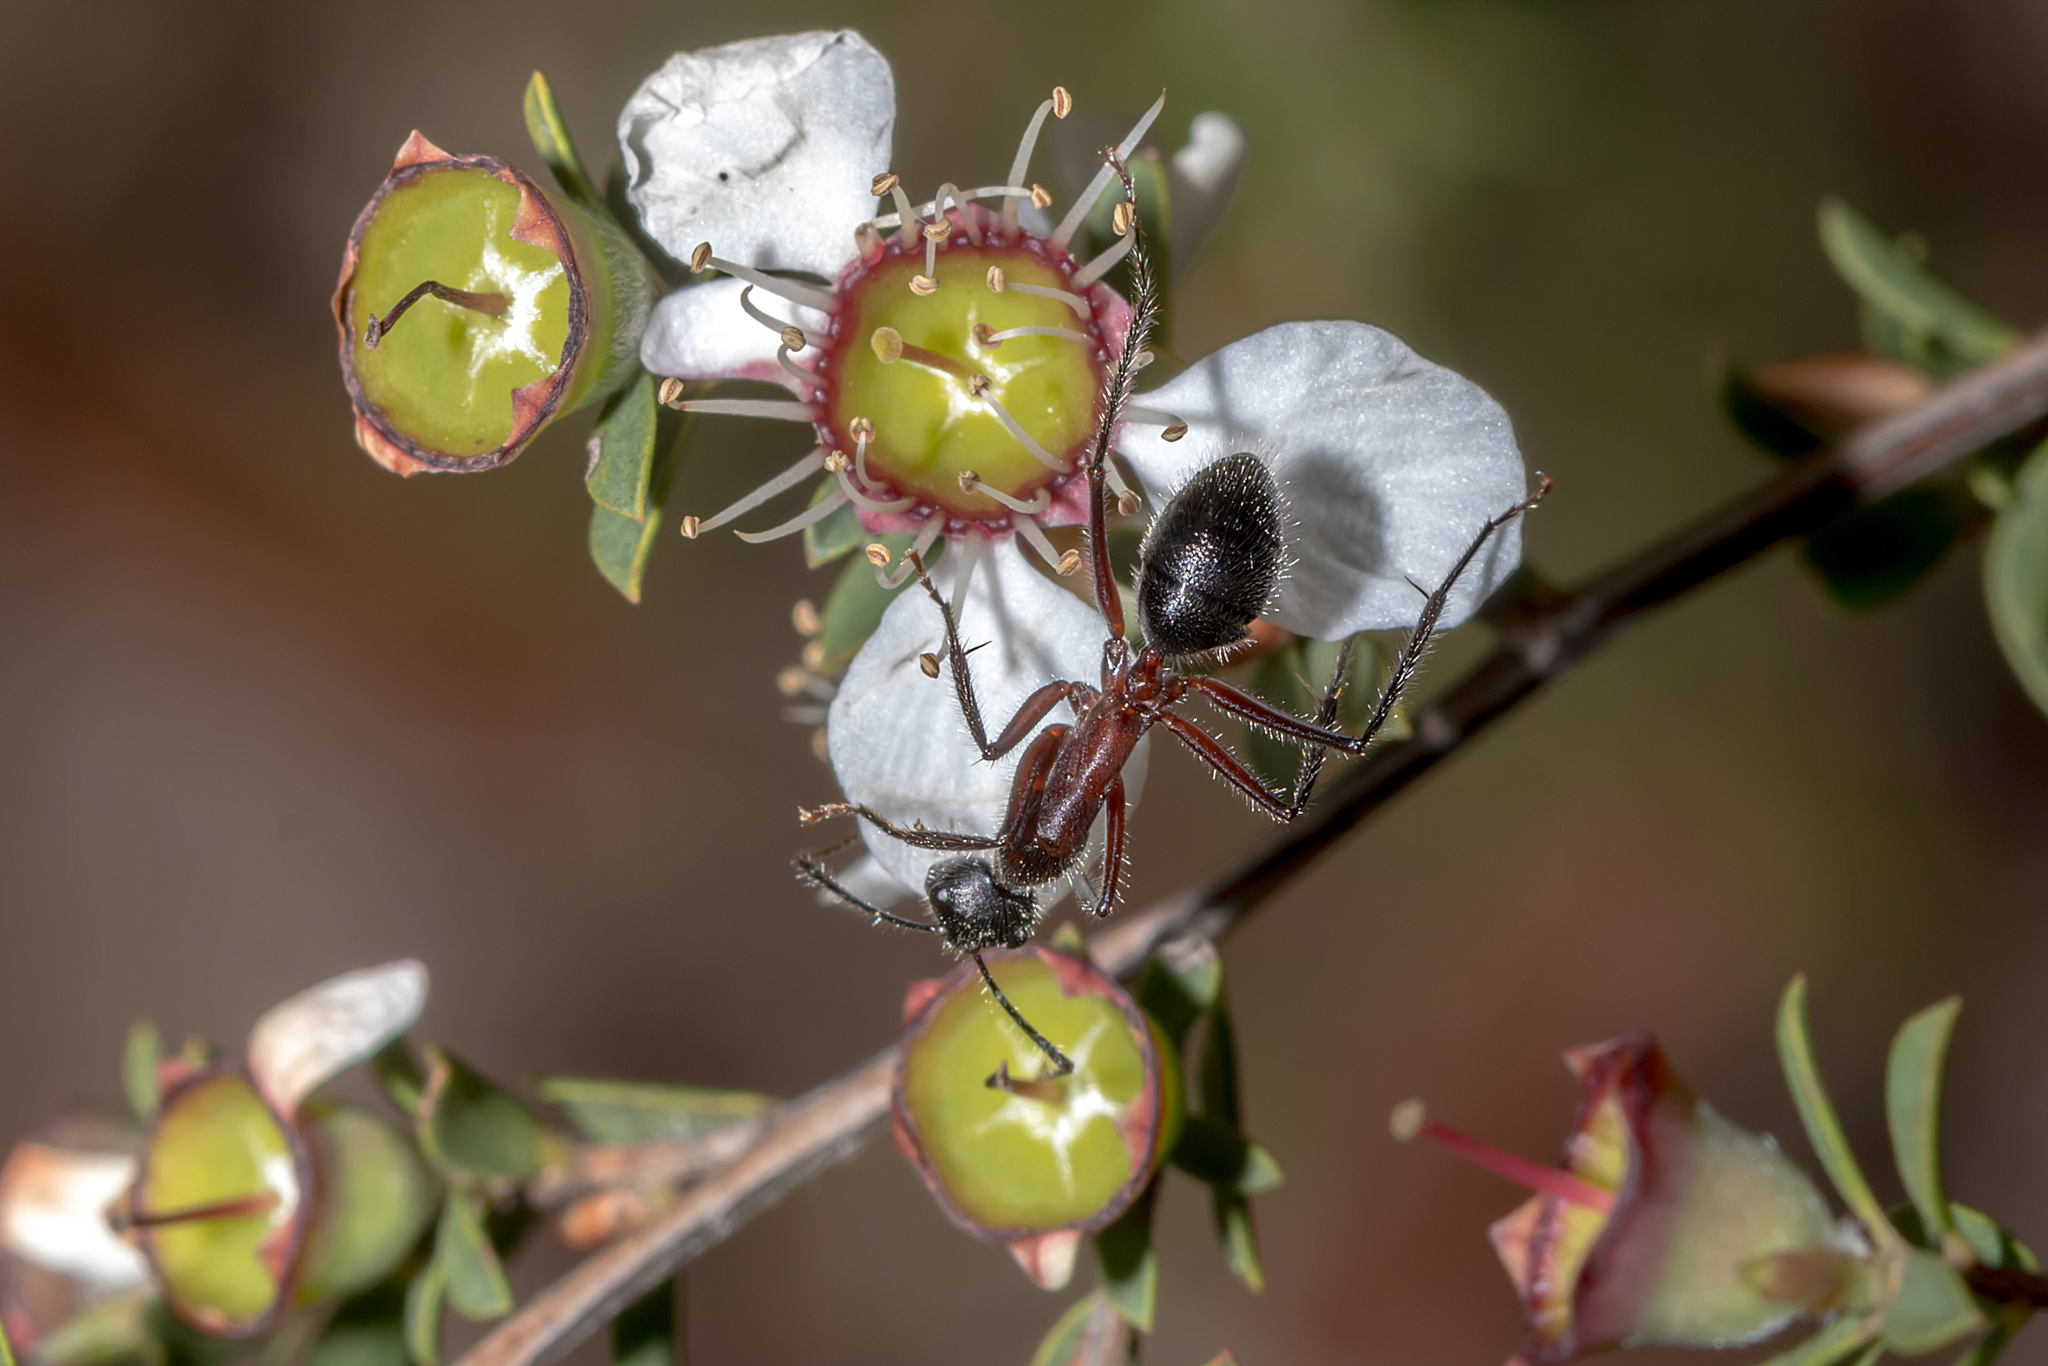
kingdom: Animalia
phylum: Arthropoda
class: Insecta
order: Hymenoptera
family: Formicidae
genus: Camponotus
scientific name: Camponotus intrepidus
